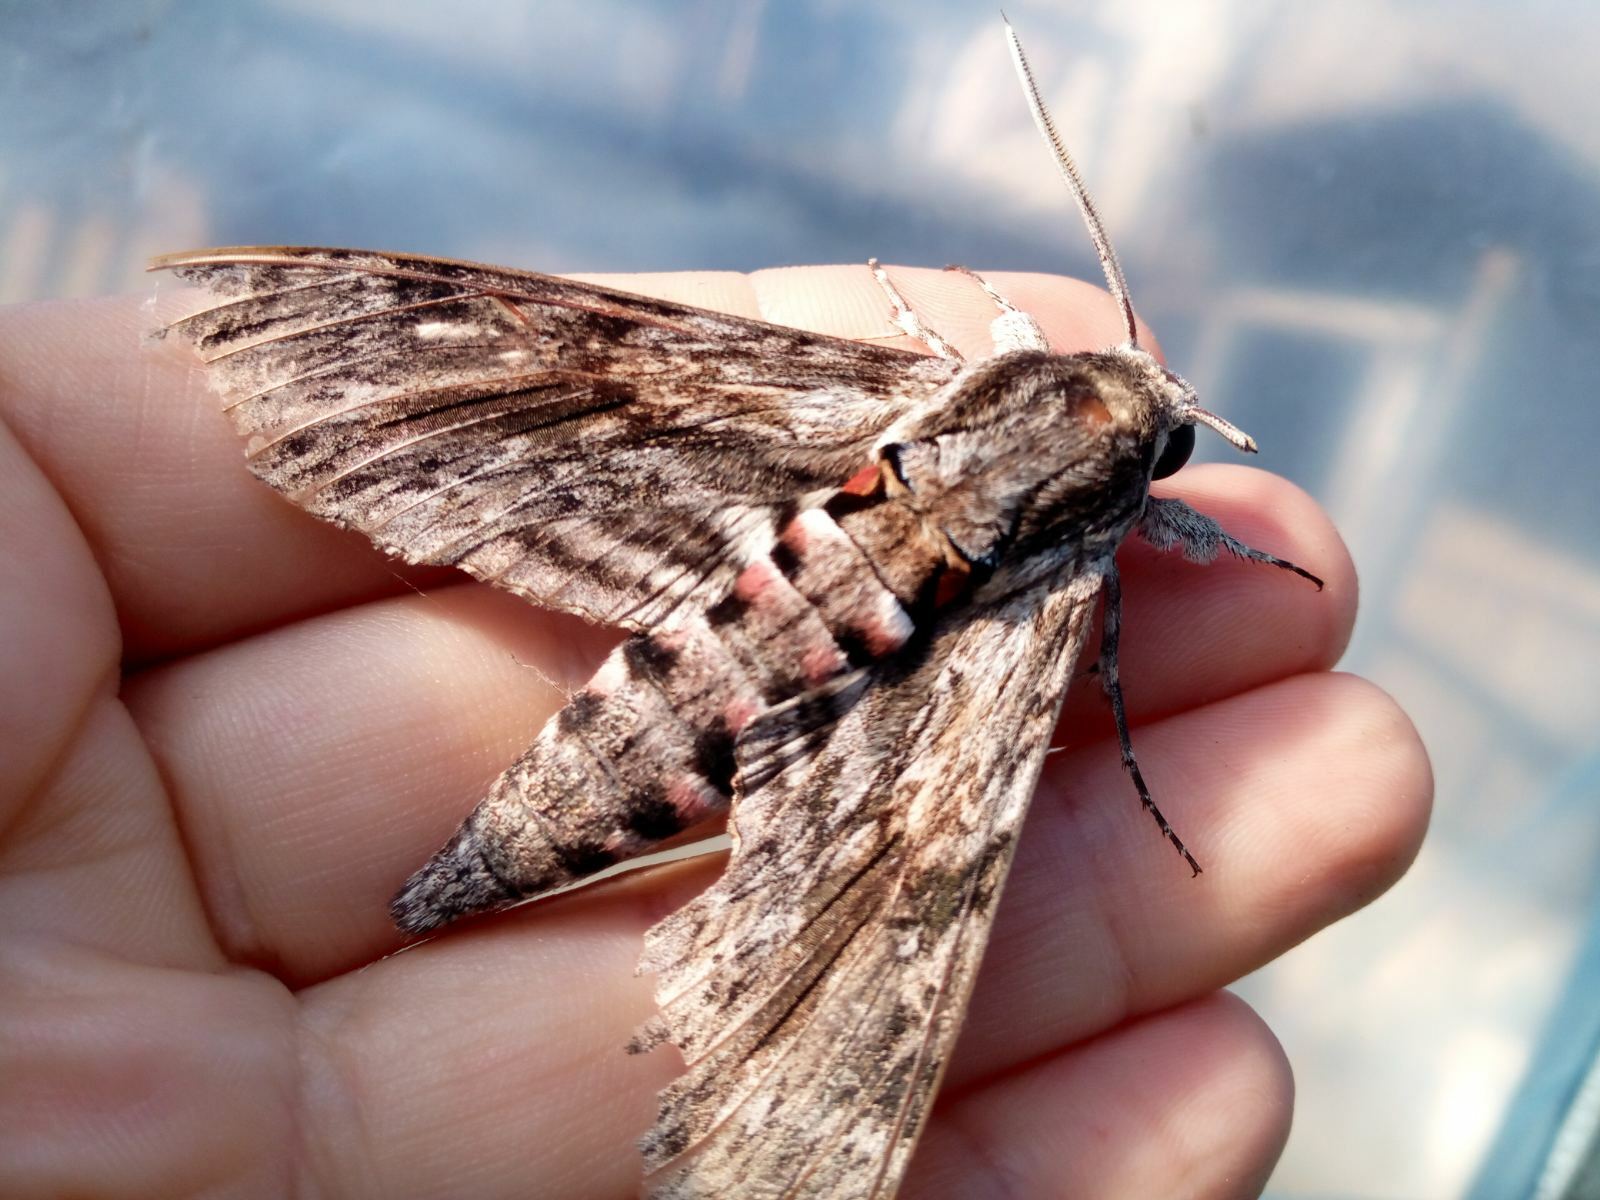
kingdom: Animalia
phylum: Arthropoda
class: Insecta
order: Lepidoptera
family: Sphingidae
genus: Agrius
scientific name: Agrius convolvuli
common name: Convolvulus hawkmoth
